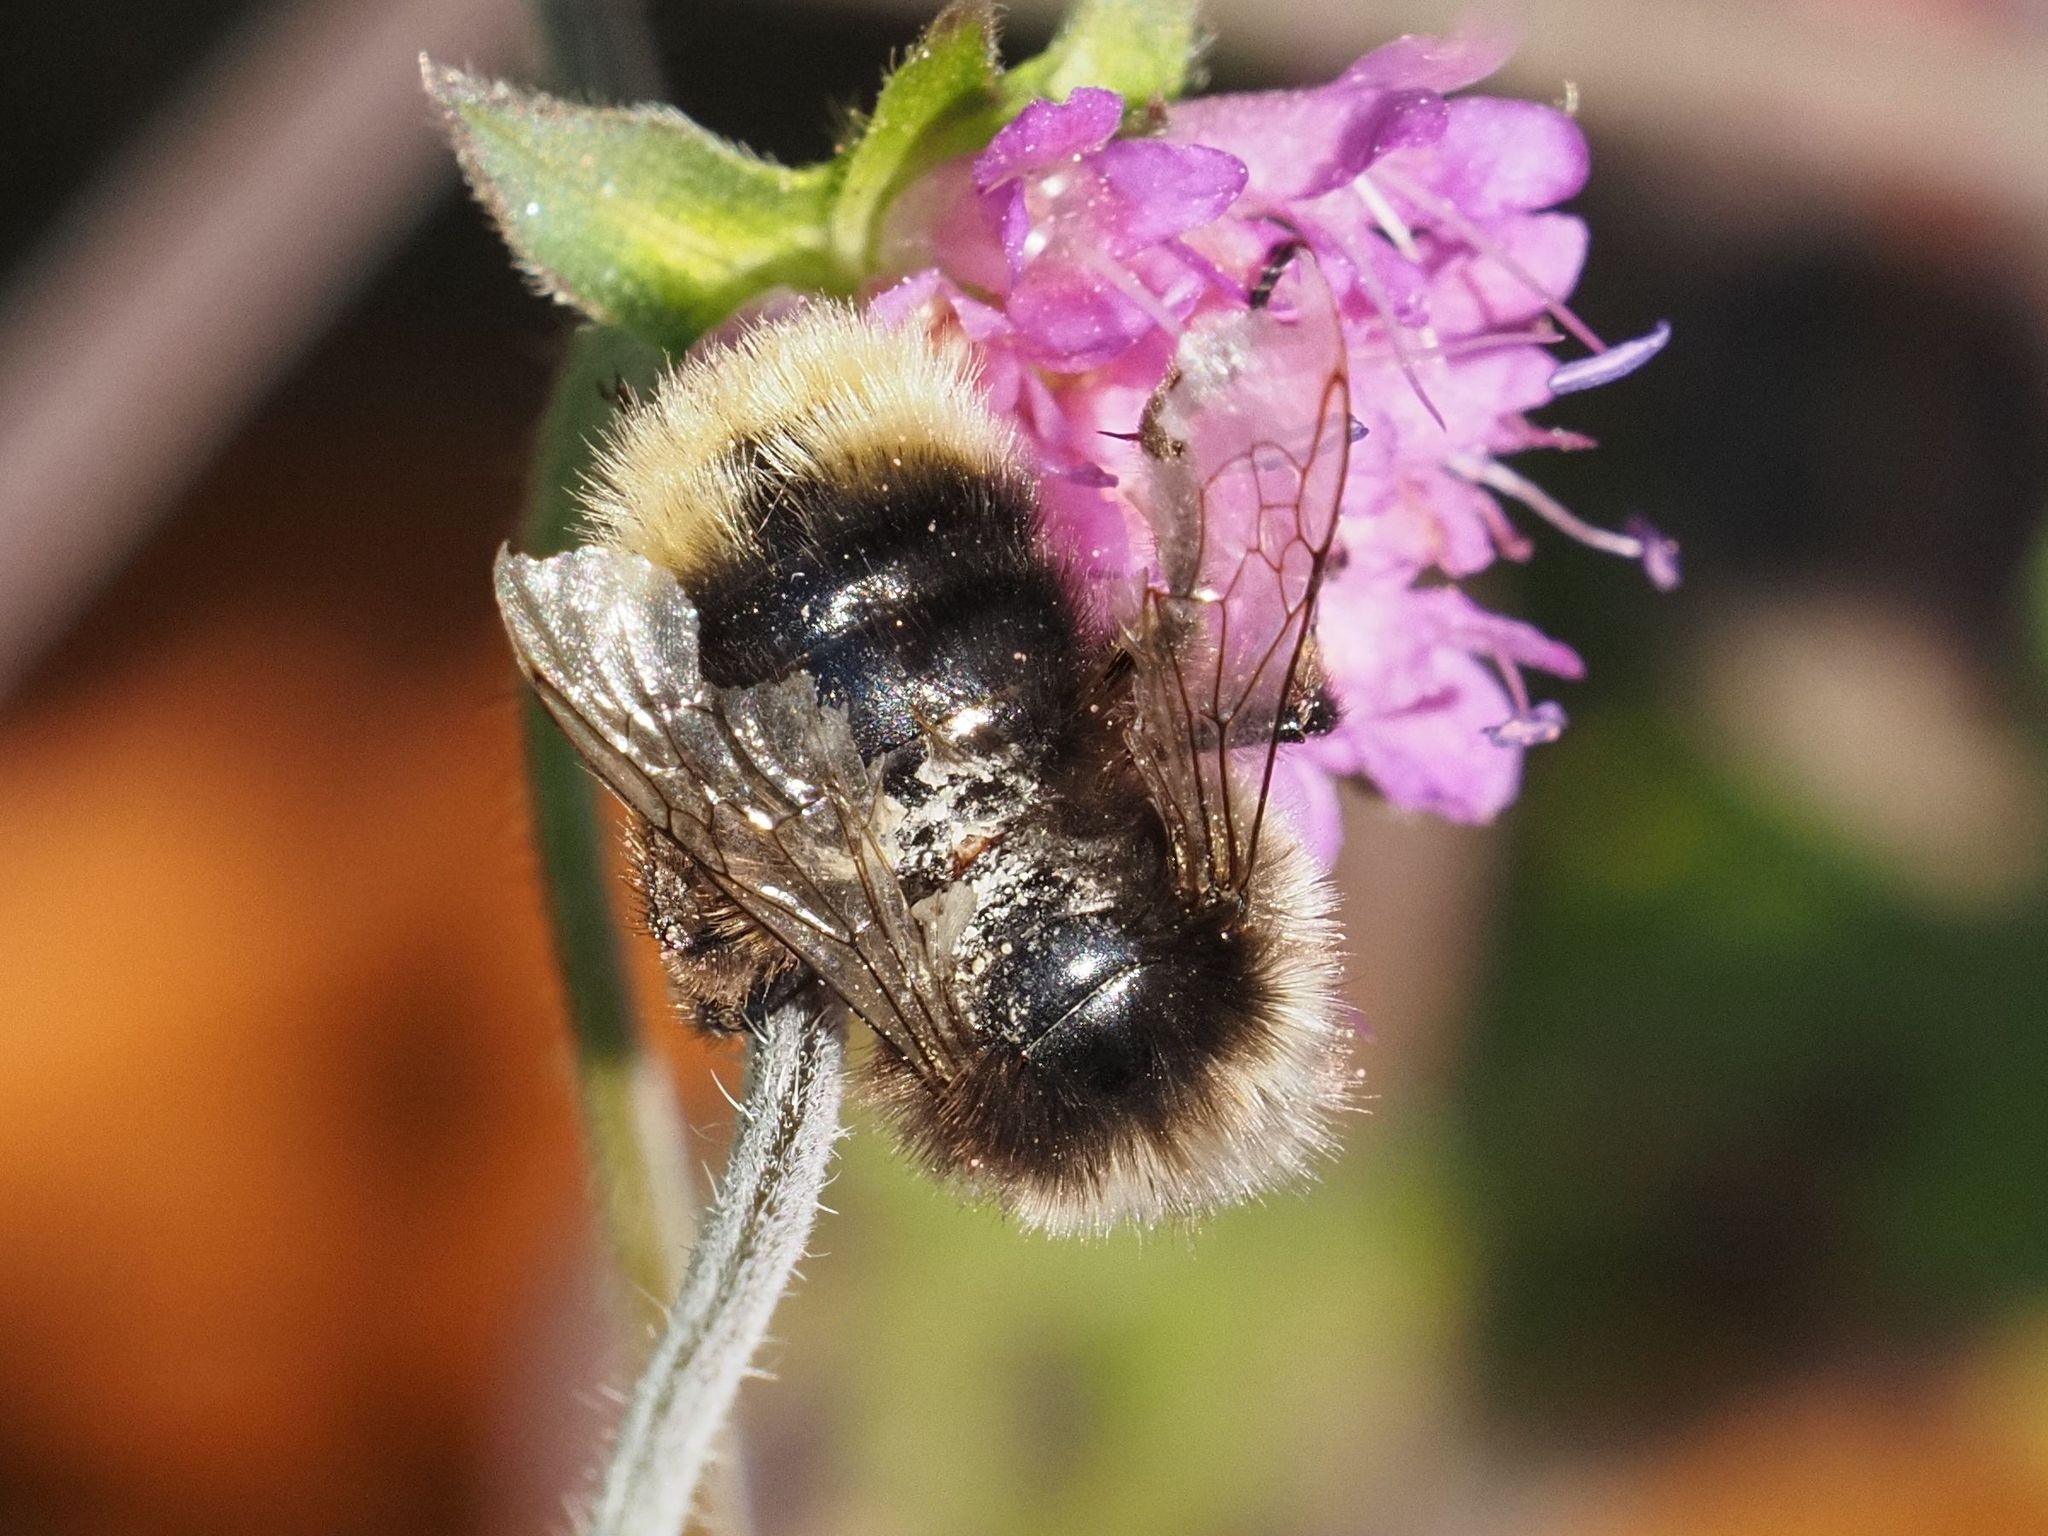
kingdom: Animalia
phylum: Arthropoda
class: Insecta
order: Hymenoptera
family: Apidae
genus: Bombus
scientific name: Bombus lapidarius
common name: Large red-tailed humble-bee
